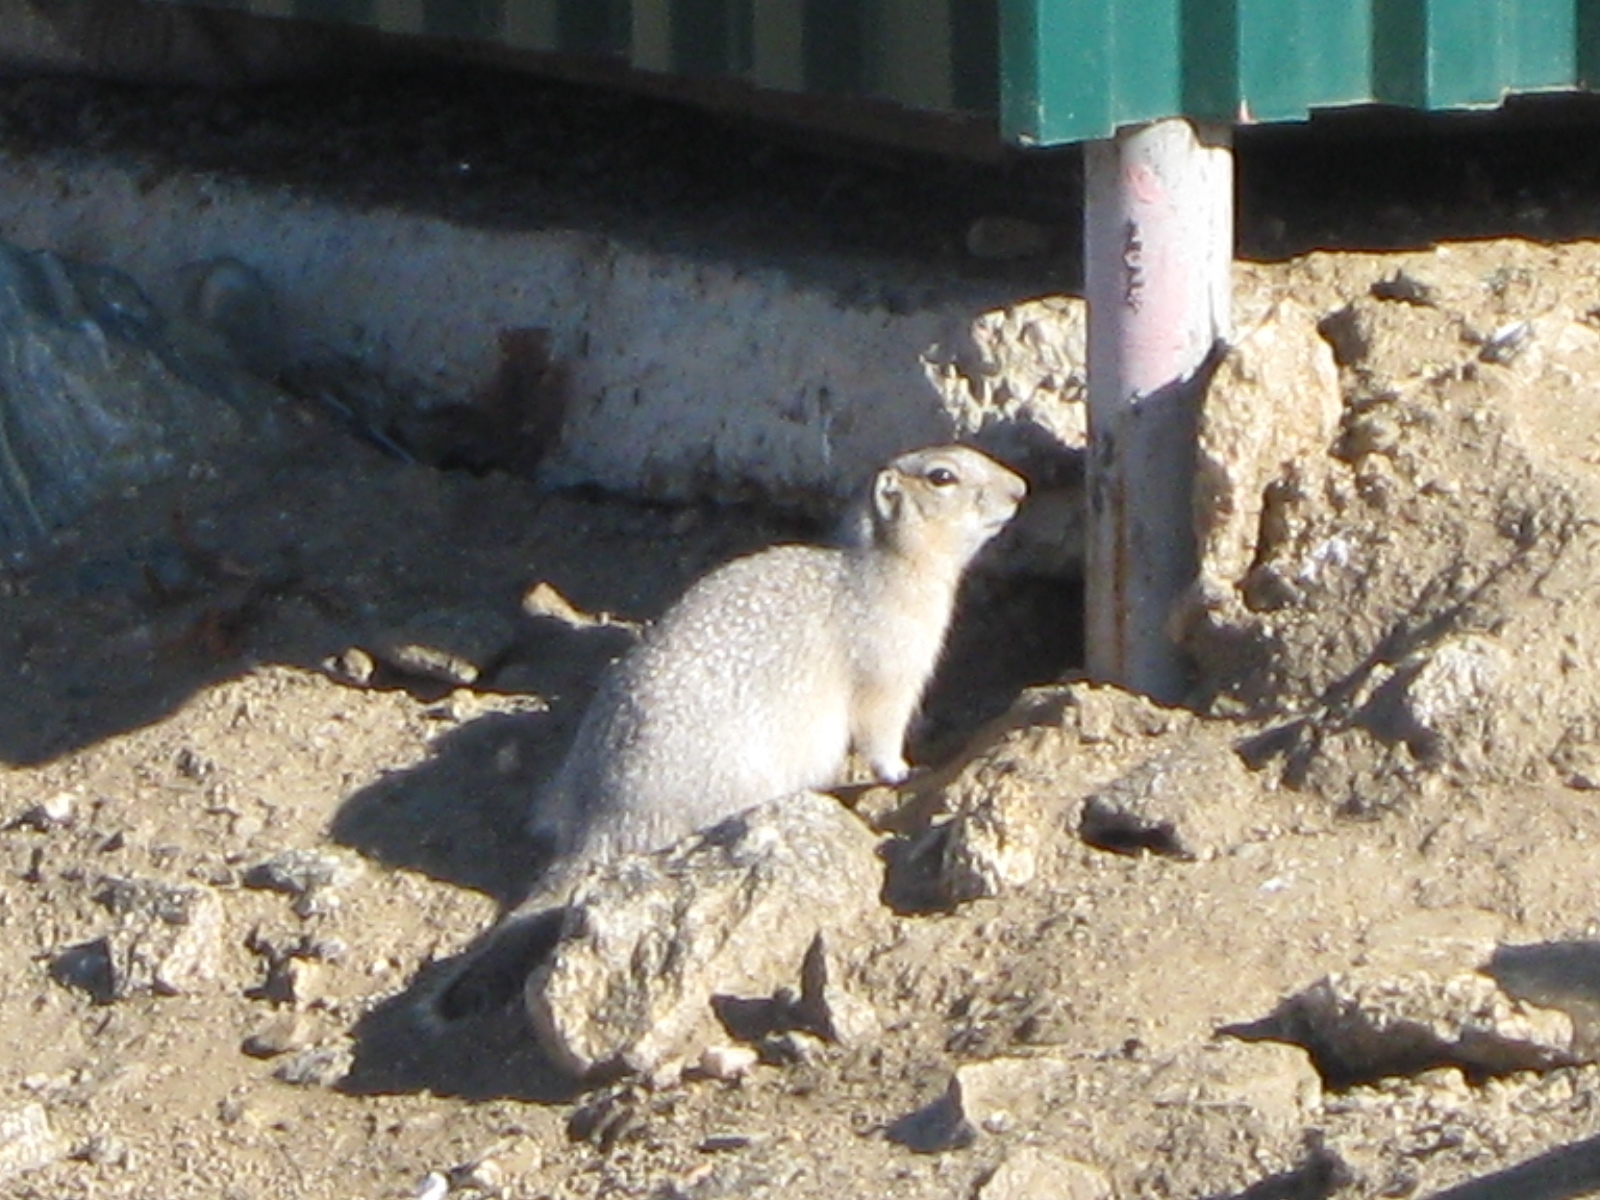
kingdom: Animalia
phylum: Chordata
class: Mammalia
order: Rodentia
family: Sciuridae
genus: Urocitellus
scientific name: Urocitellus undulatus
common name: Long-tailed ground squirrel
